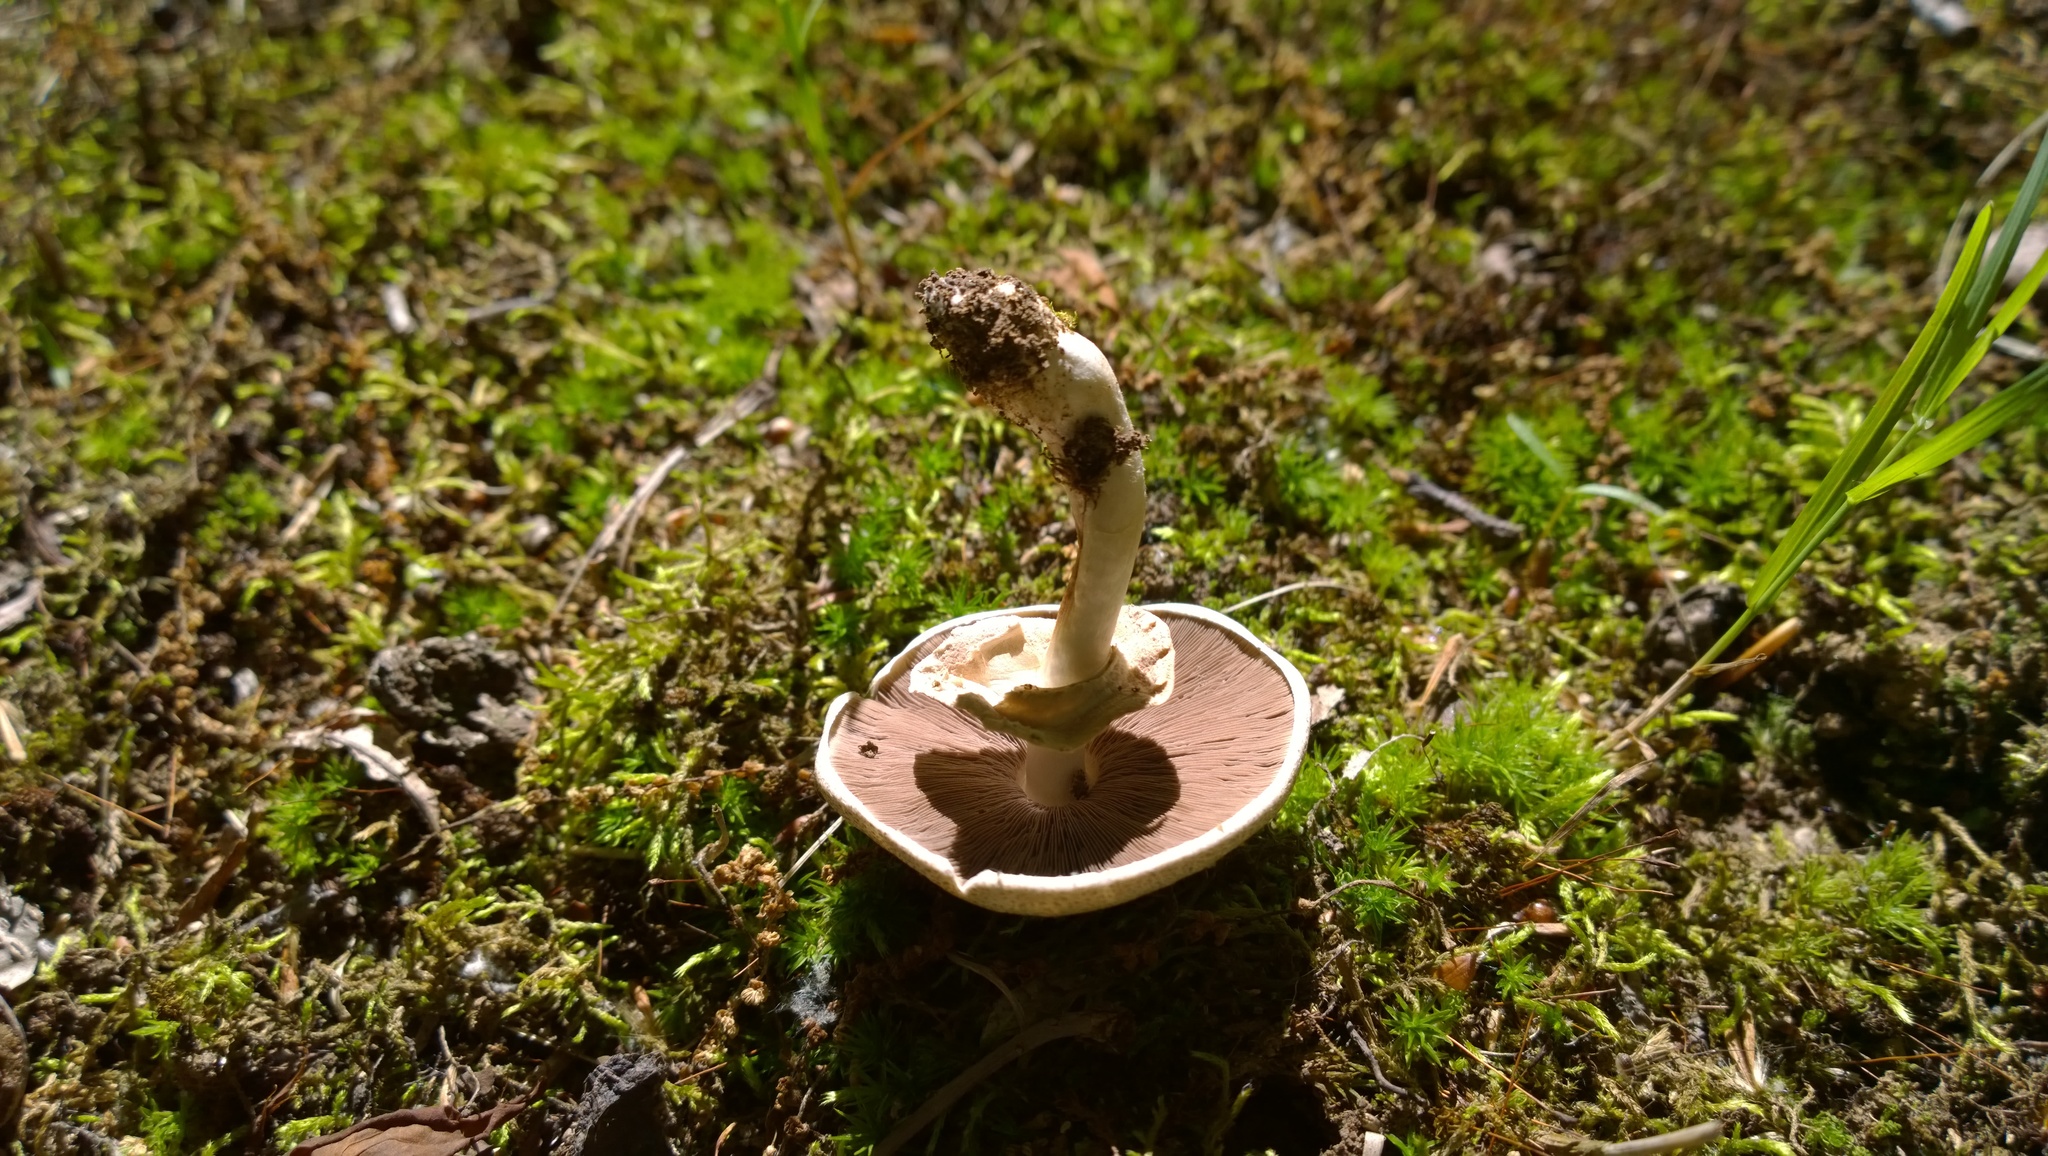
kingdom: Fungi
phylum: Basidiomycota
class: Agaricomycetes
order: Agaricales
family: Agaricaceae
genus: Agaricus
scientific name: Agaricus placomyces
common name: Inky mushroom
